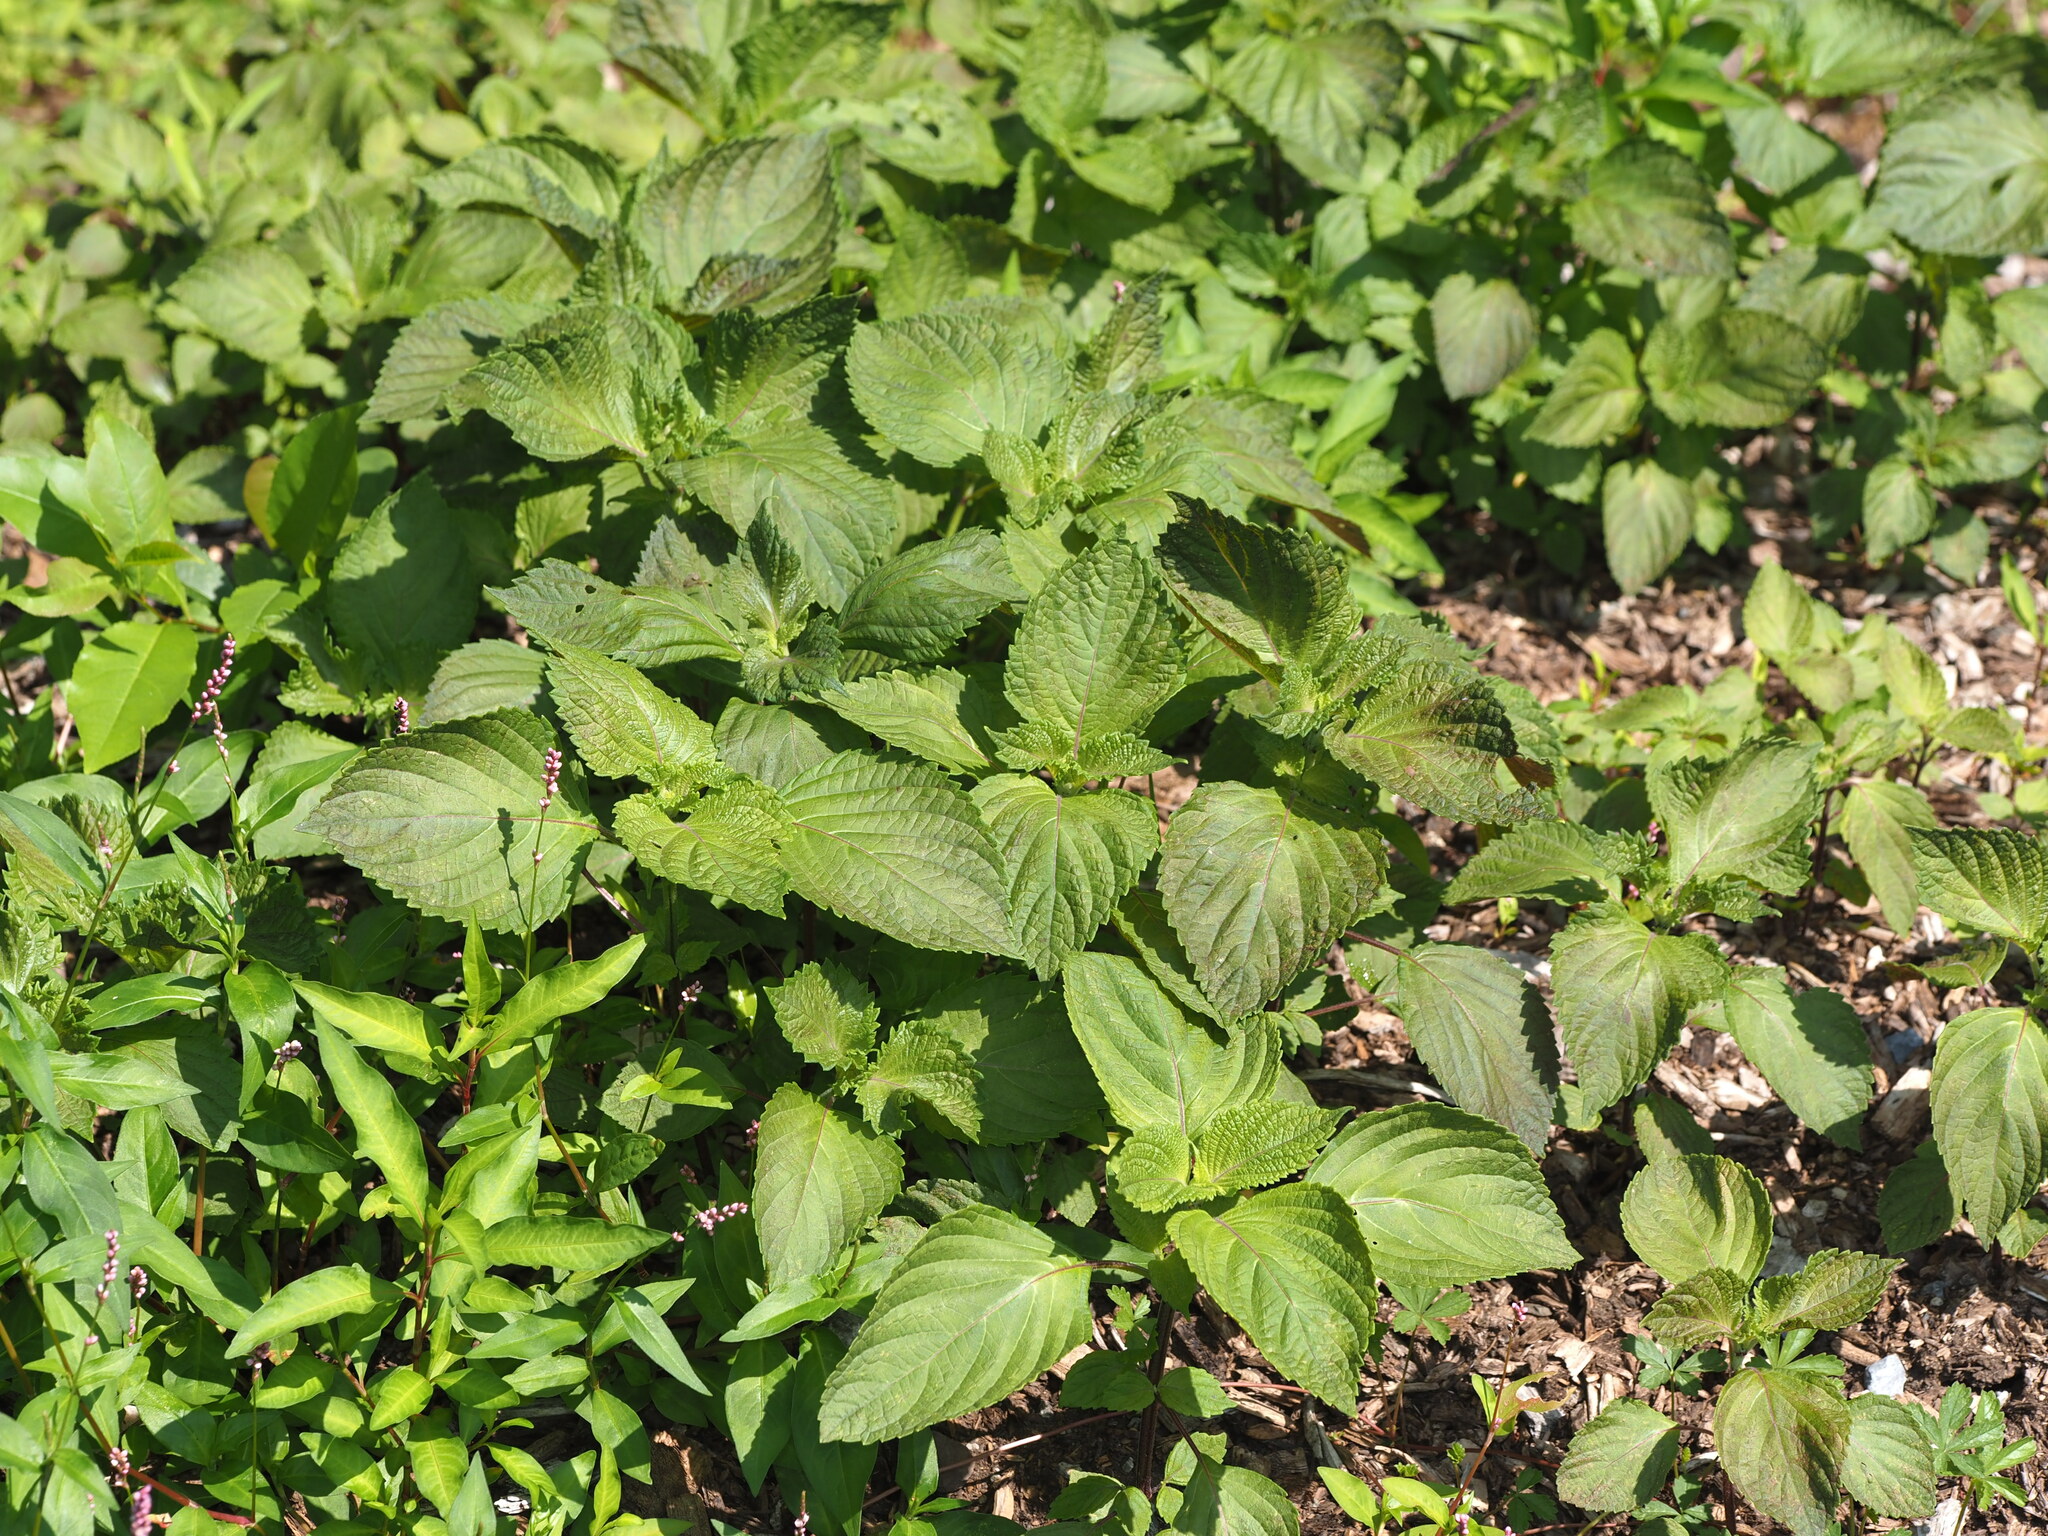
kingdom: Plantae
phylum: Tracheophyta
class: Magnoliopsida
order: Lamiales
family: Lamiaceae
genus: Perilla
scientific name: Perilla frutescens
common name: Perilla
